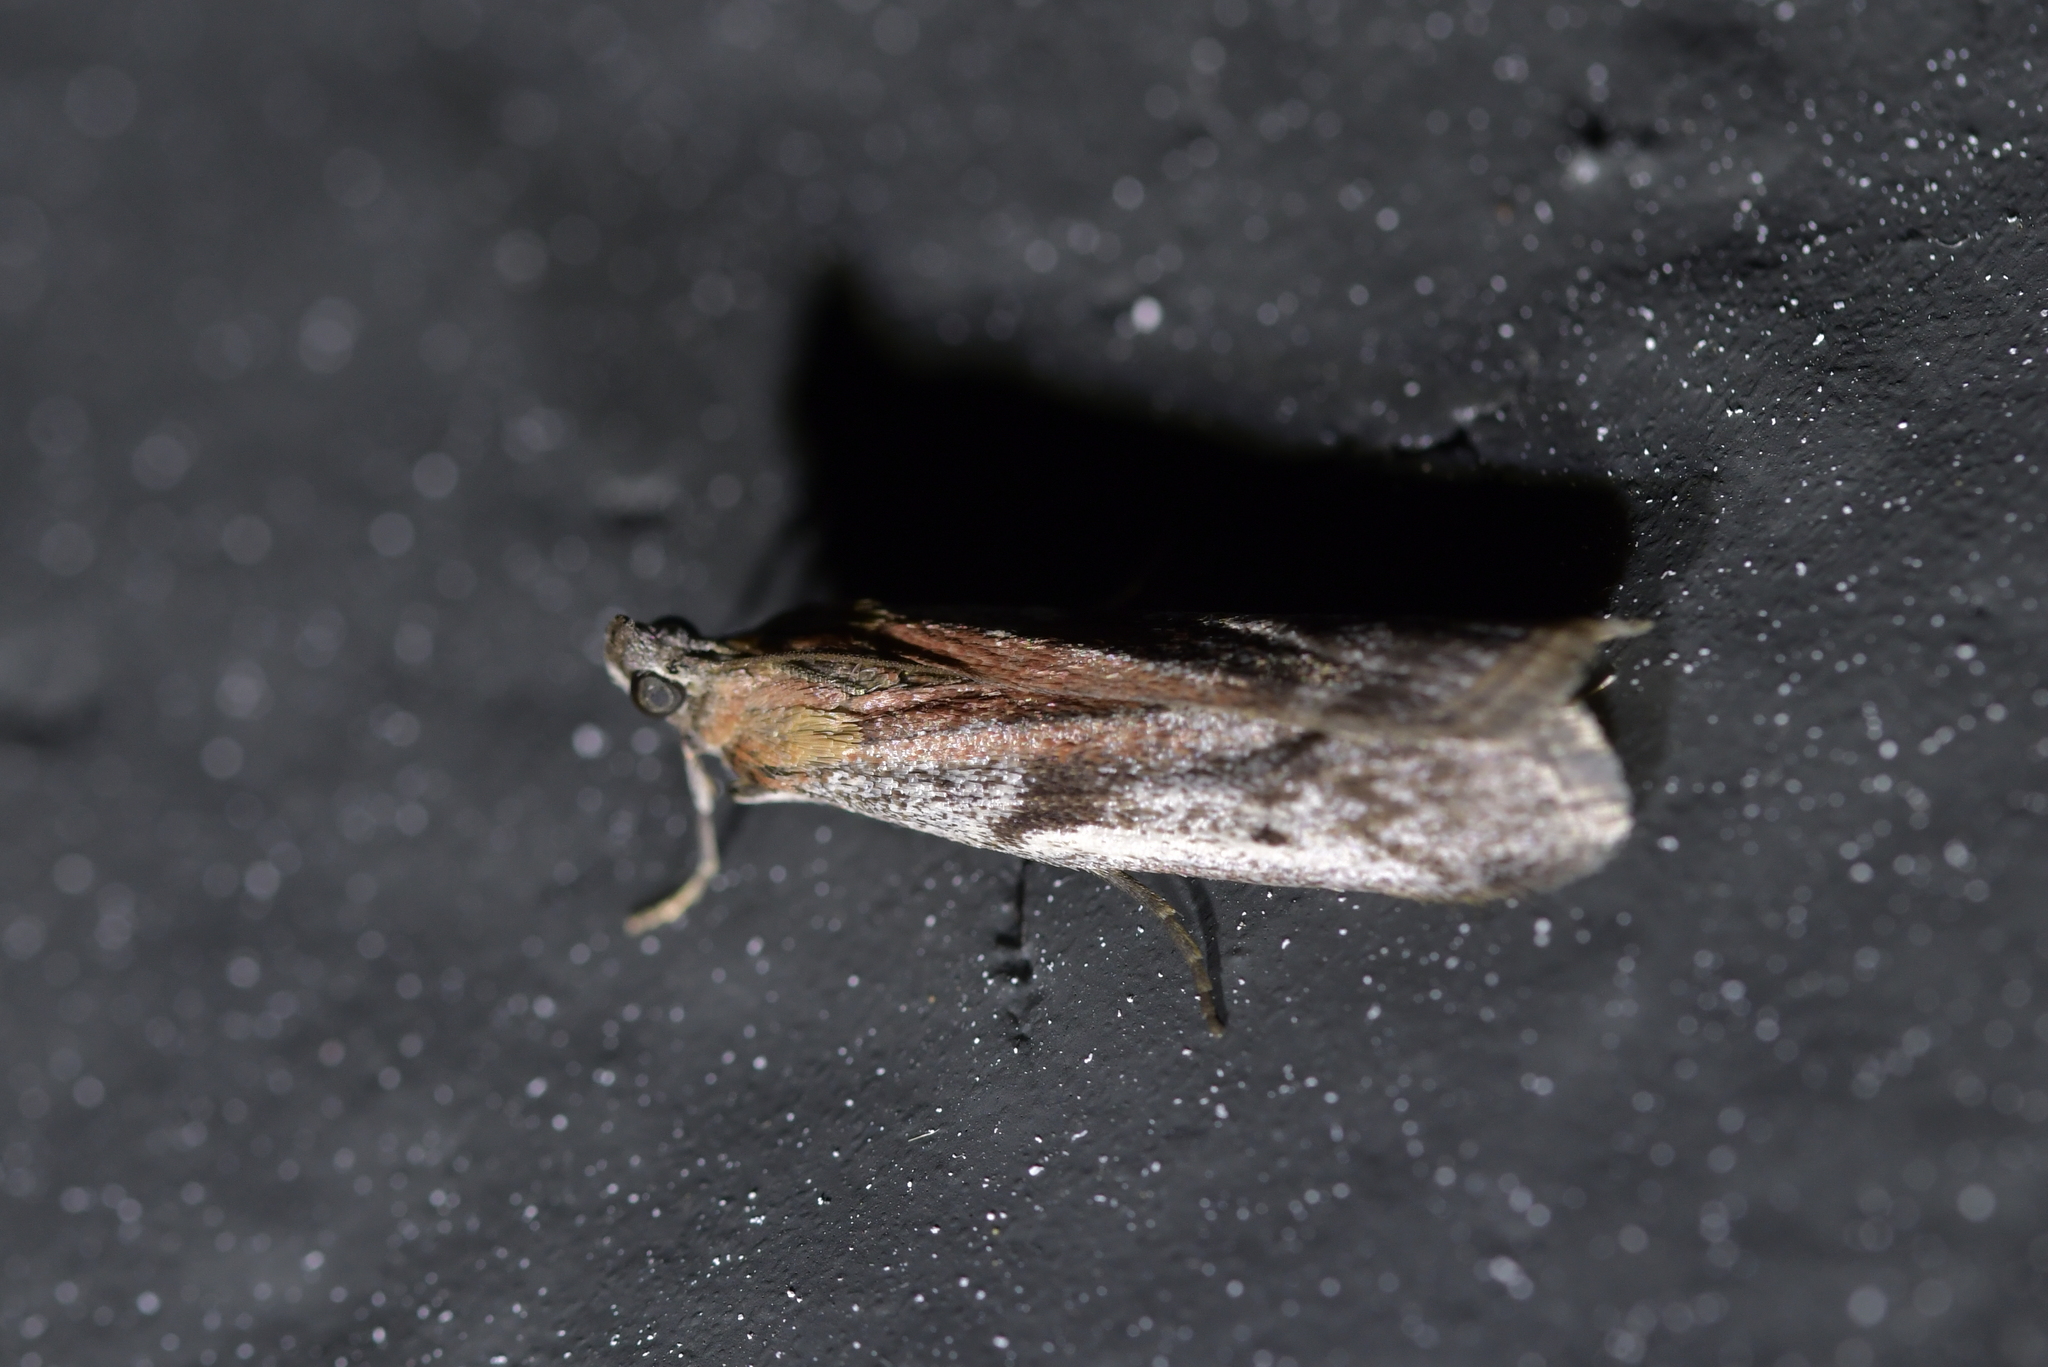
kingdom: Animalia
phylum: Arthropoda
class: Insecta
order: Lepidoptera
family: Pyralidae
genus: Patagoniodes
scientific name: Patagoniodes farinaria
